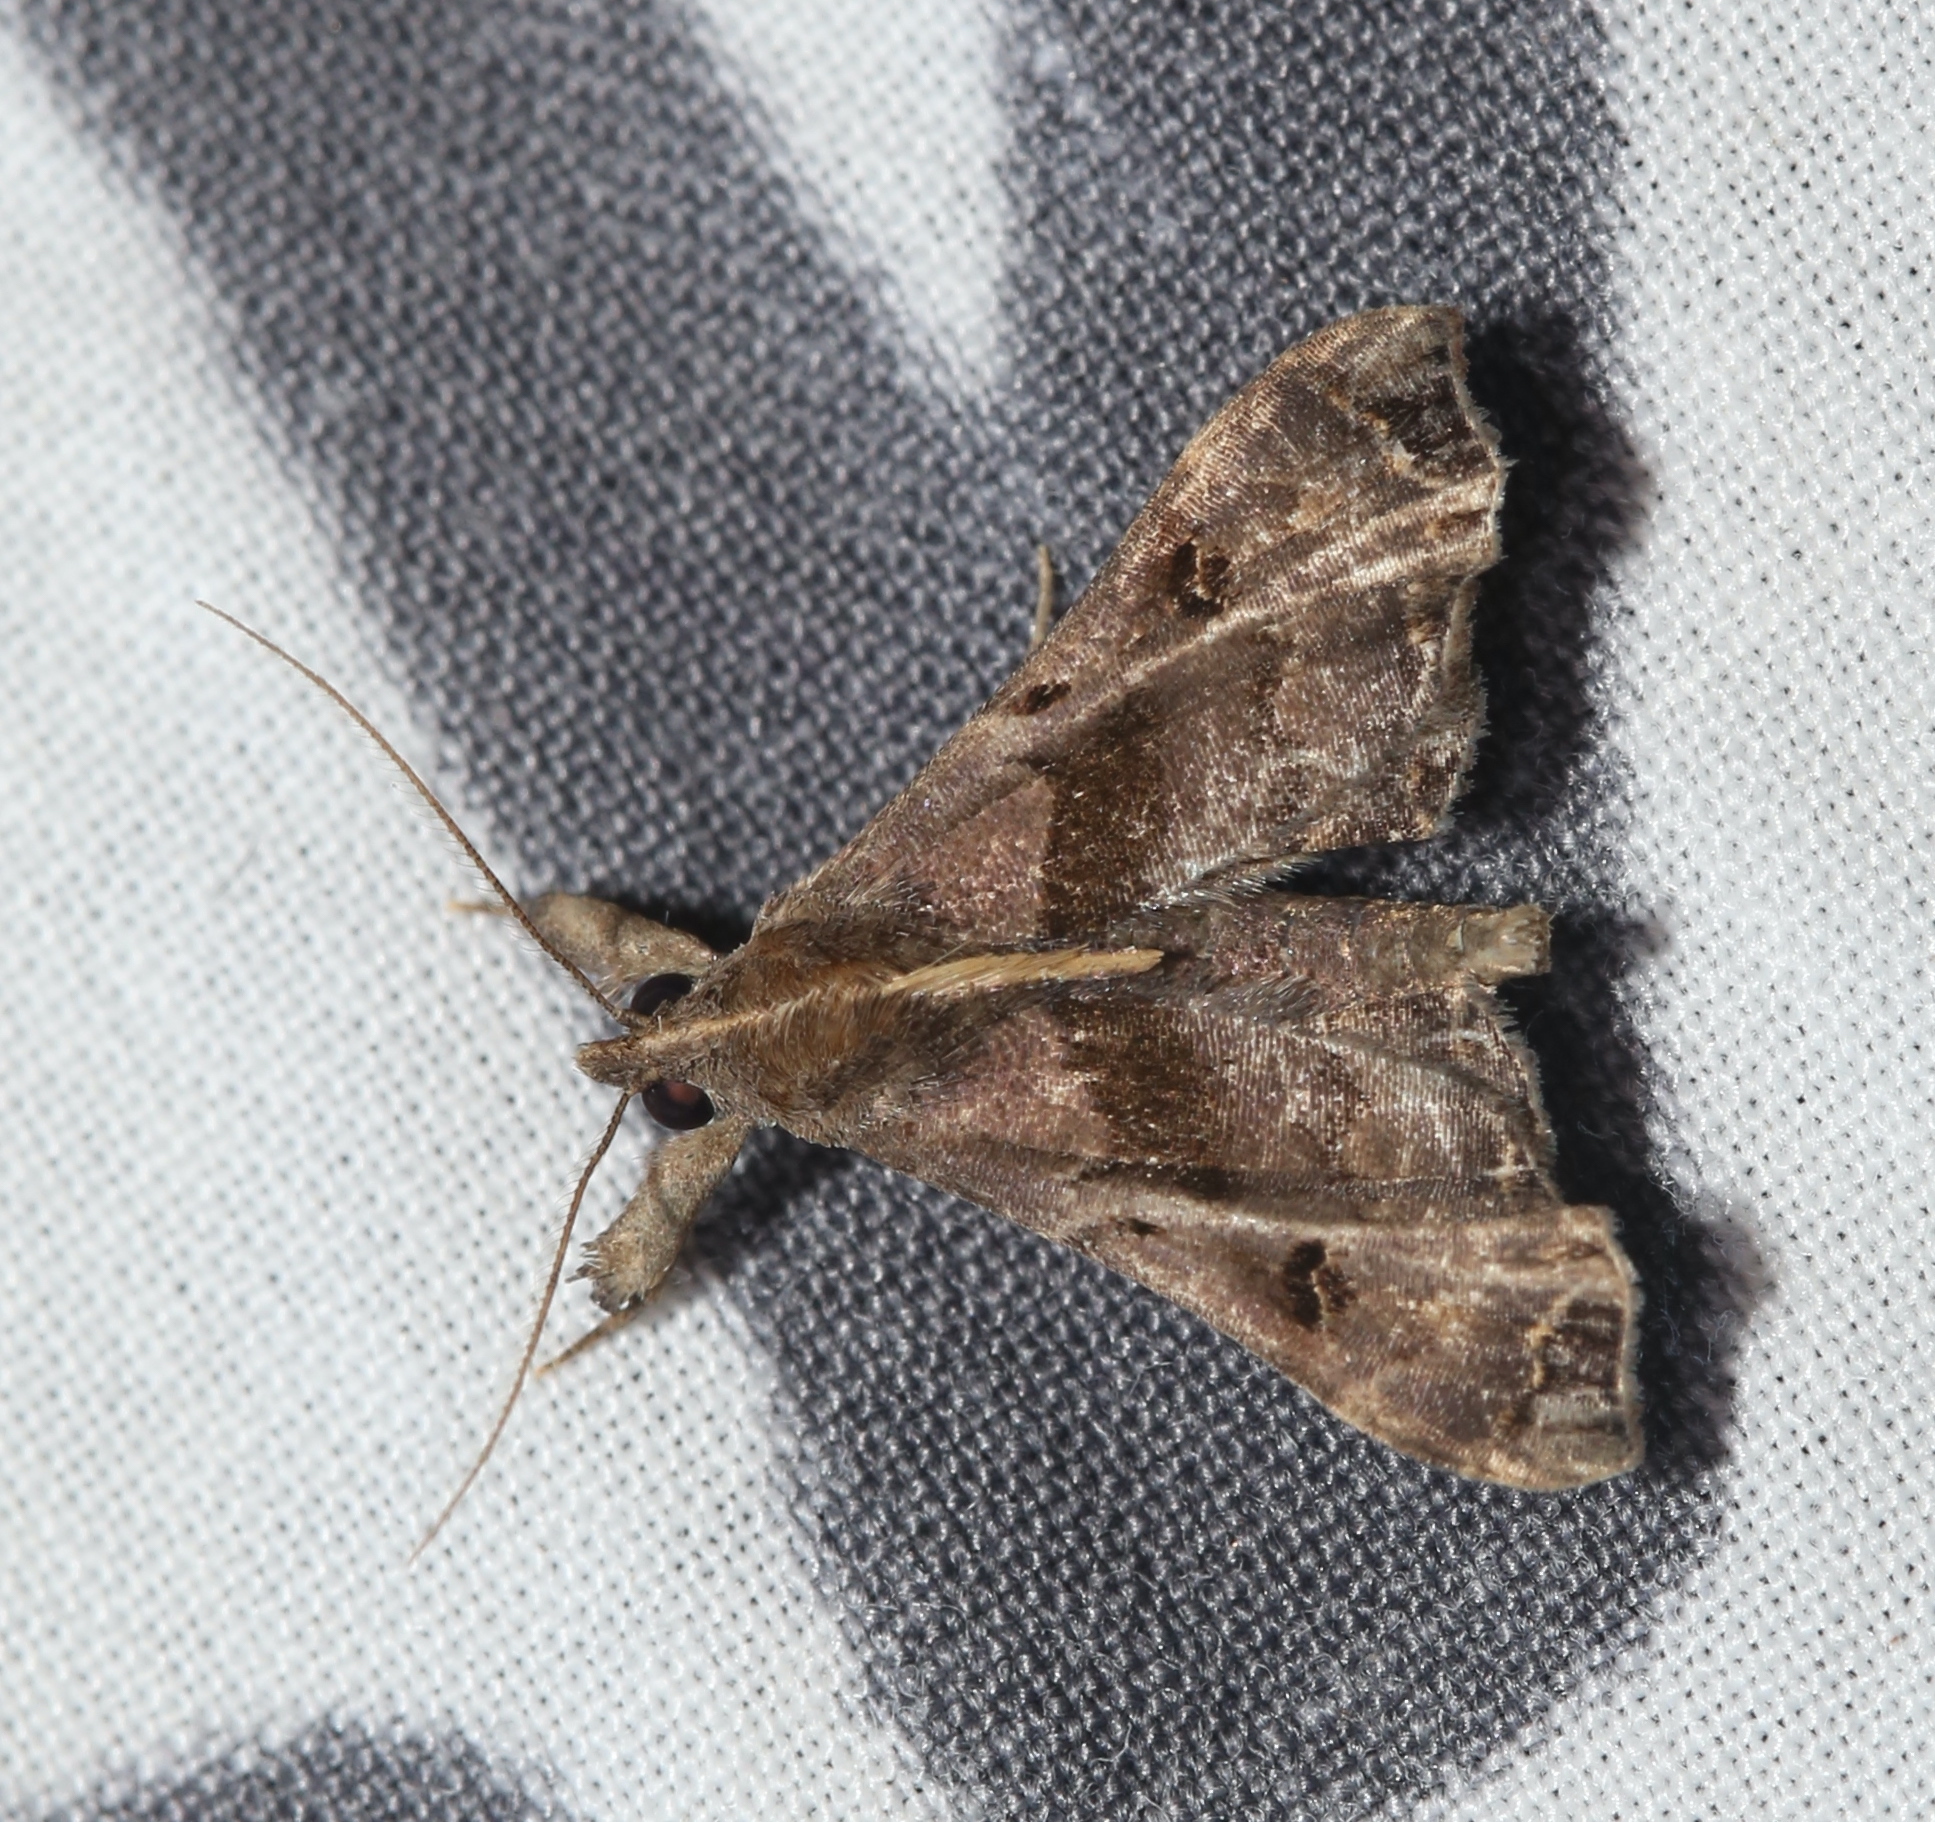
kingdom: Animalia
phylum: Arthropoda
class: Insecta
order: Lepidoptera
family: Erebidae
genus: Palthis
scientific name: Palthis asopialis
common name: Faint-spotted palthis moth
